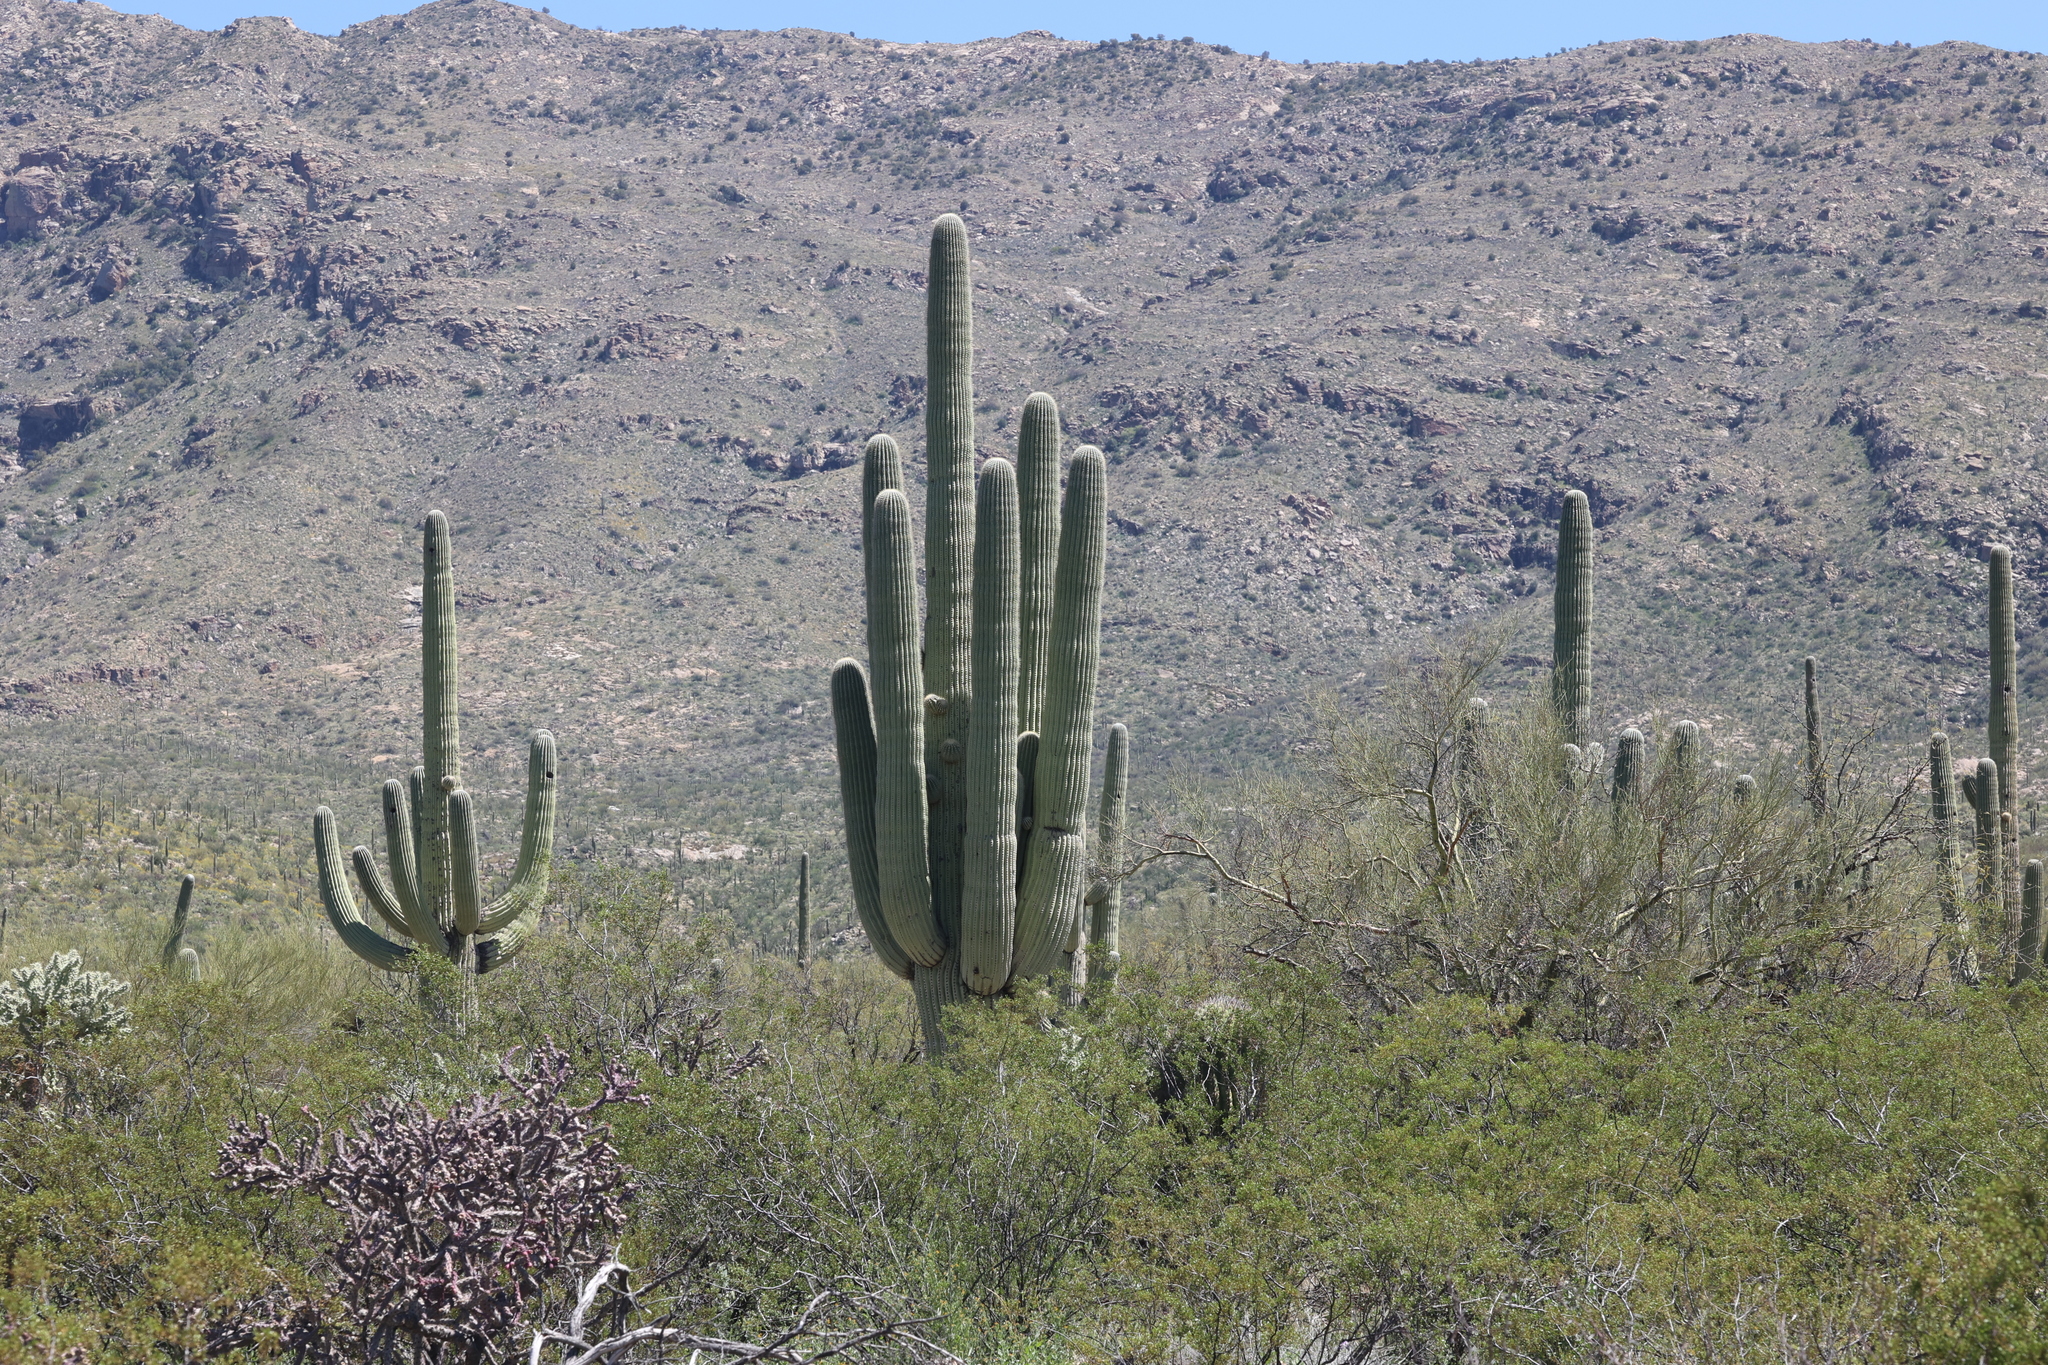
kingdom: Plantae
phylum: Tracheophyta
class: Magnoliopsida
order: Caryophyllales
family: Cactaceae
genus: Carnegiea
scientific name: Carnegiea gigantea
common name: Saguaro
